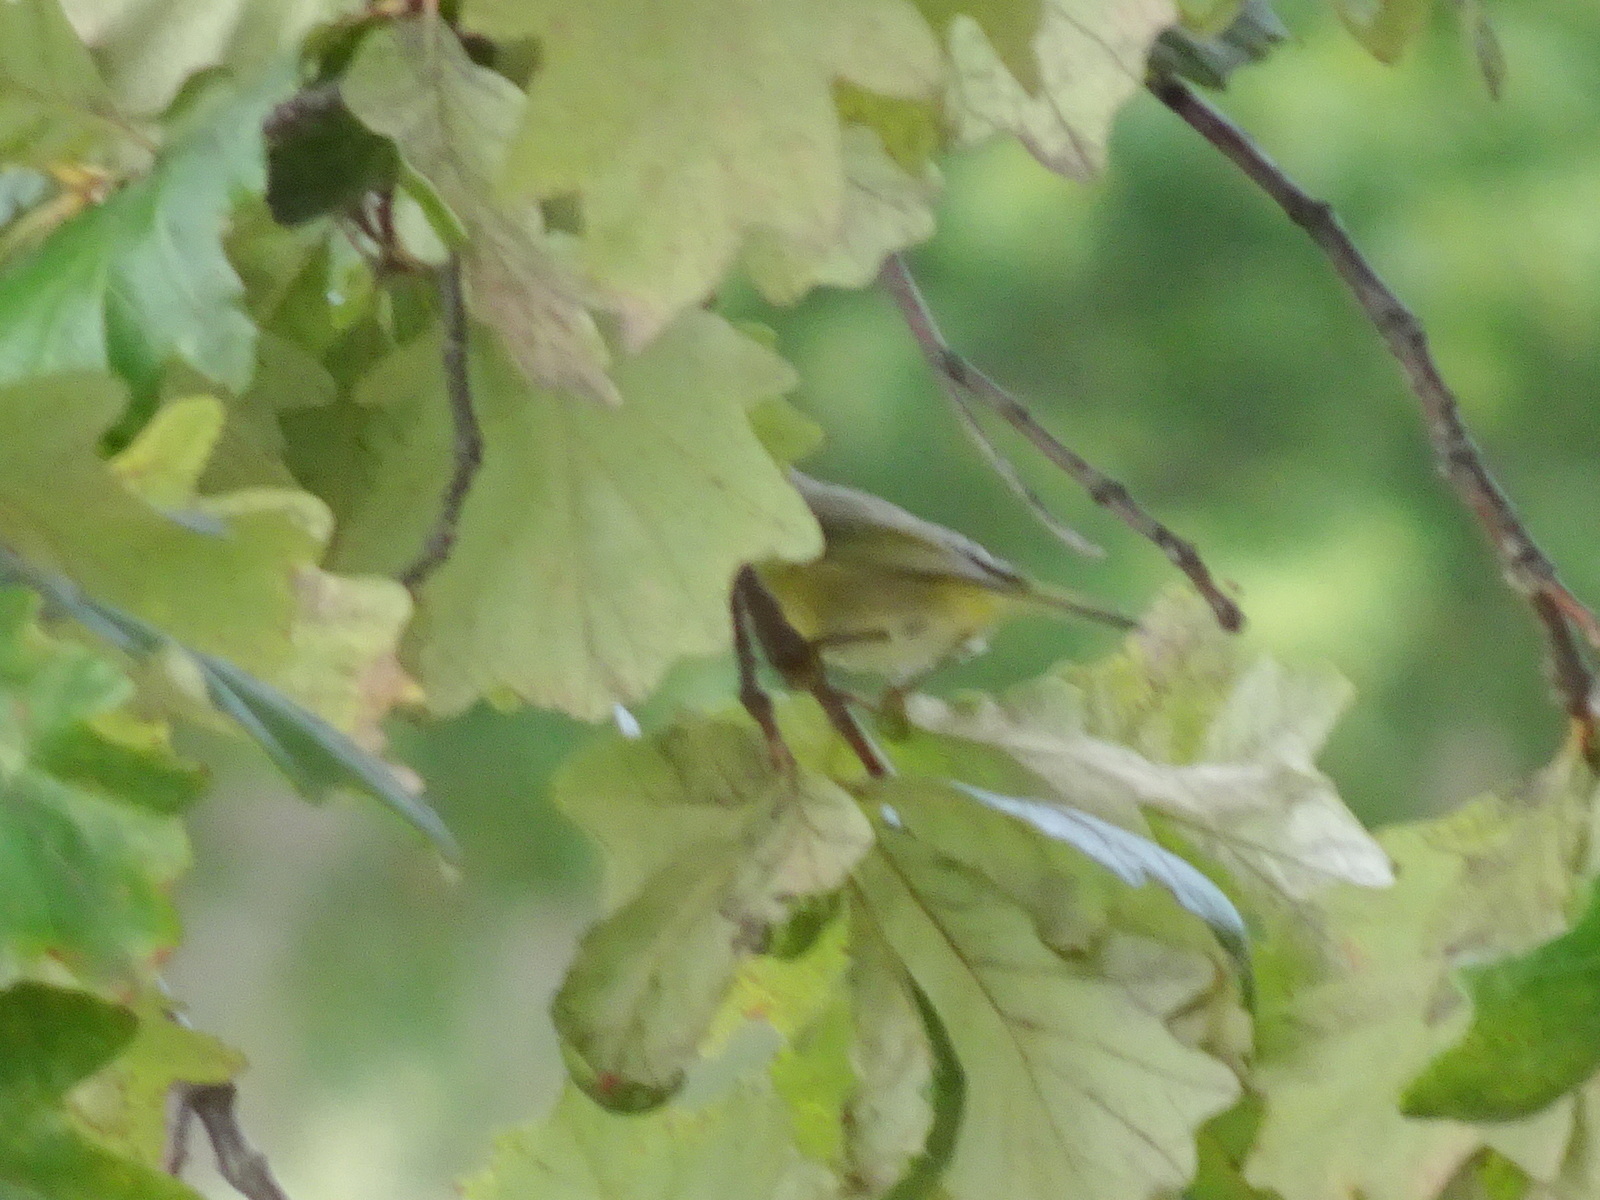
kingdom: Animalia
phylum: Chordata
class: Aves
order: Passeriformes
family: Parulidae
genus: Leiothlypis
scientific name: Leiothlypis ruficapilla
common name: Nashville warbler
